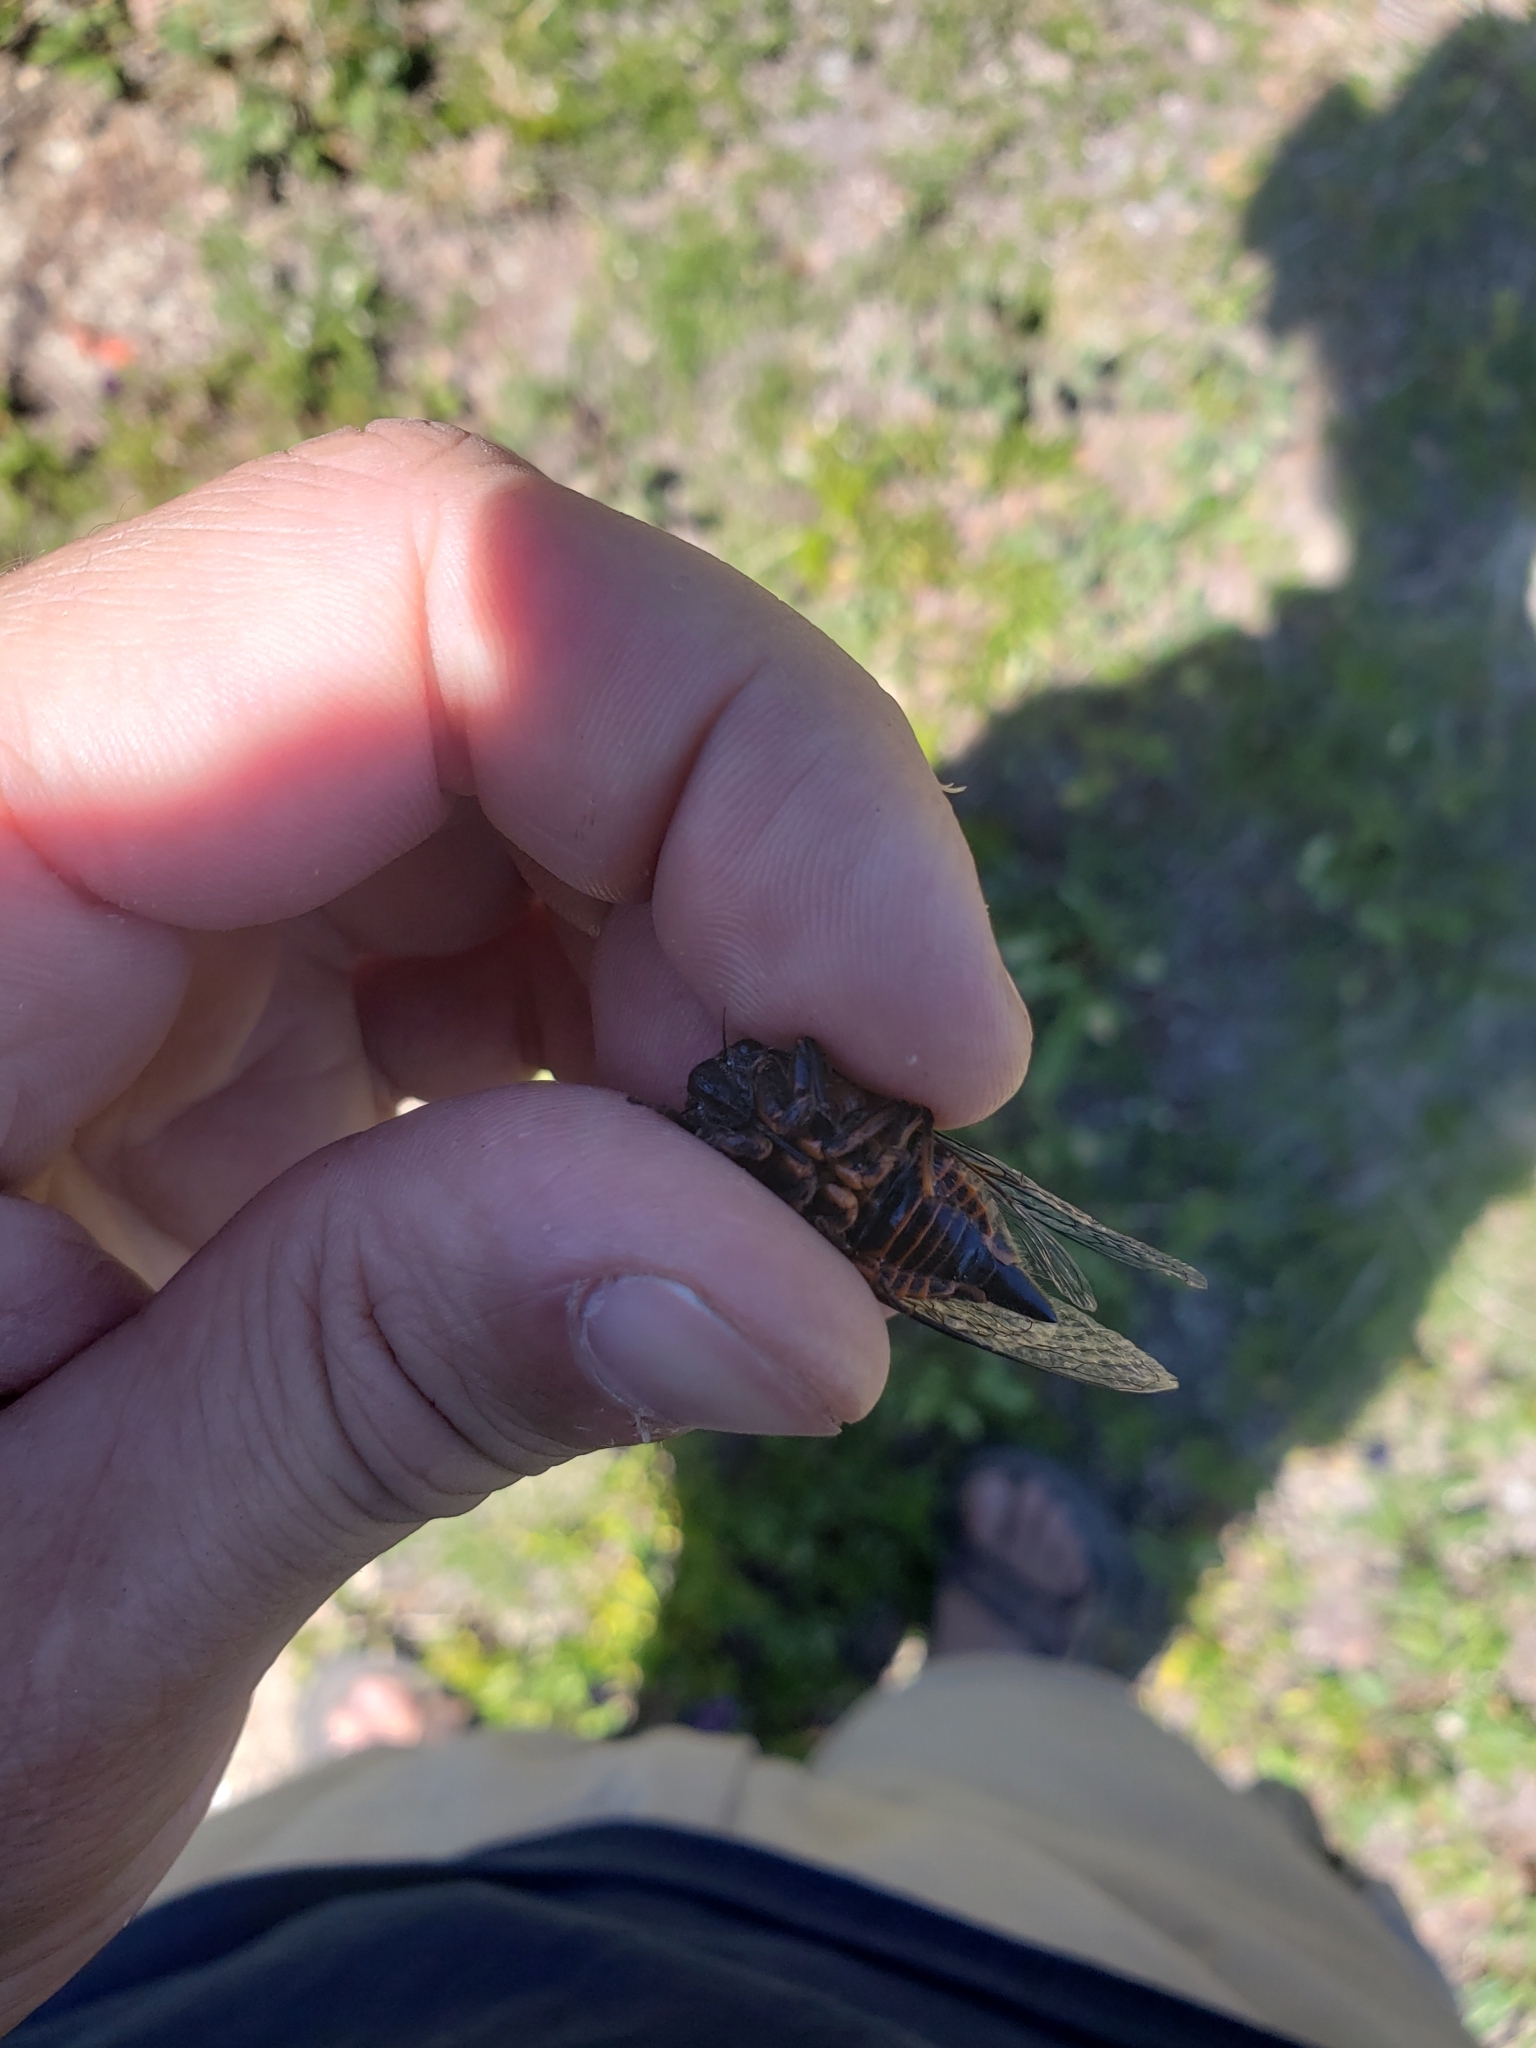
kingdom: Animalia
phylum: Arthropoda
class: Insecta
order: Hemiptera
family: Cicadidae
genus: Okanagana
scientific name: Okanagana occidentalis
